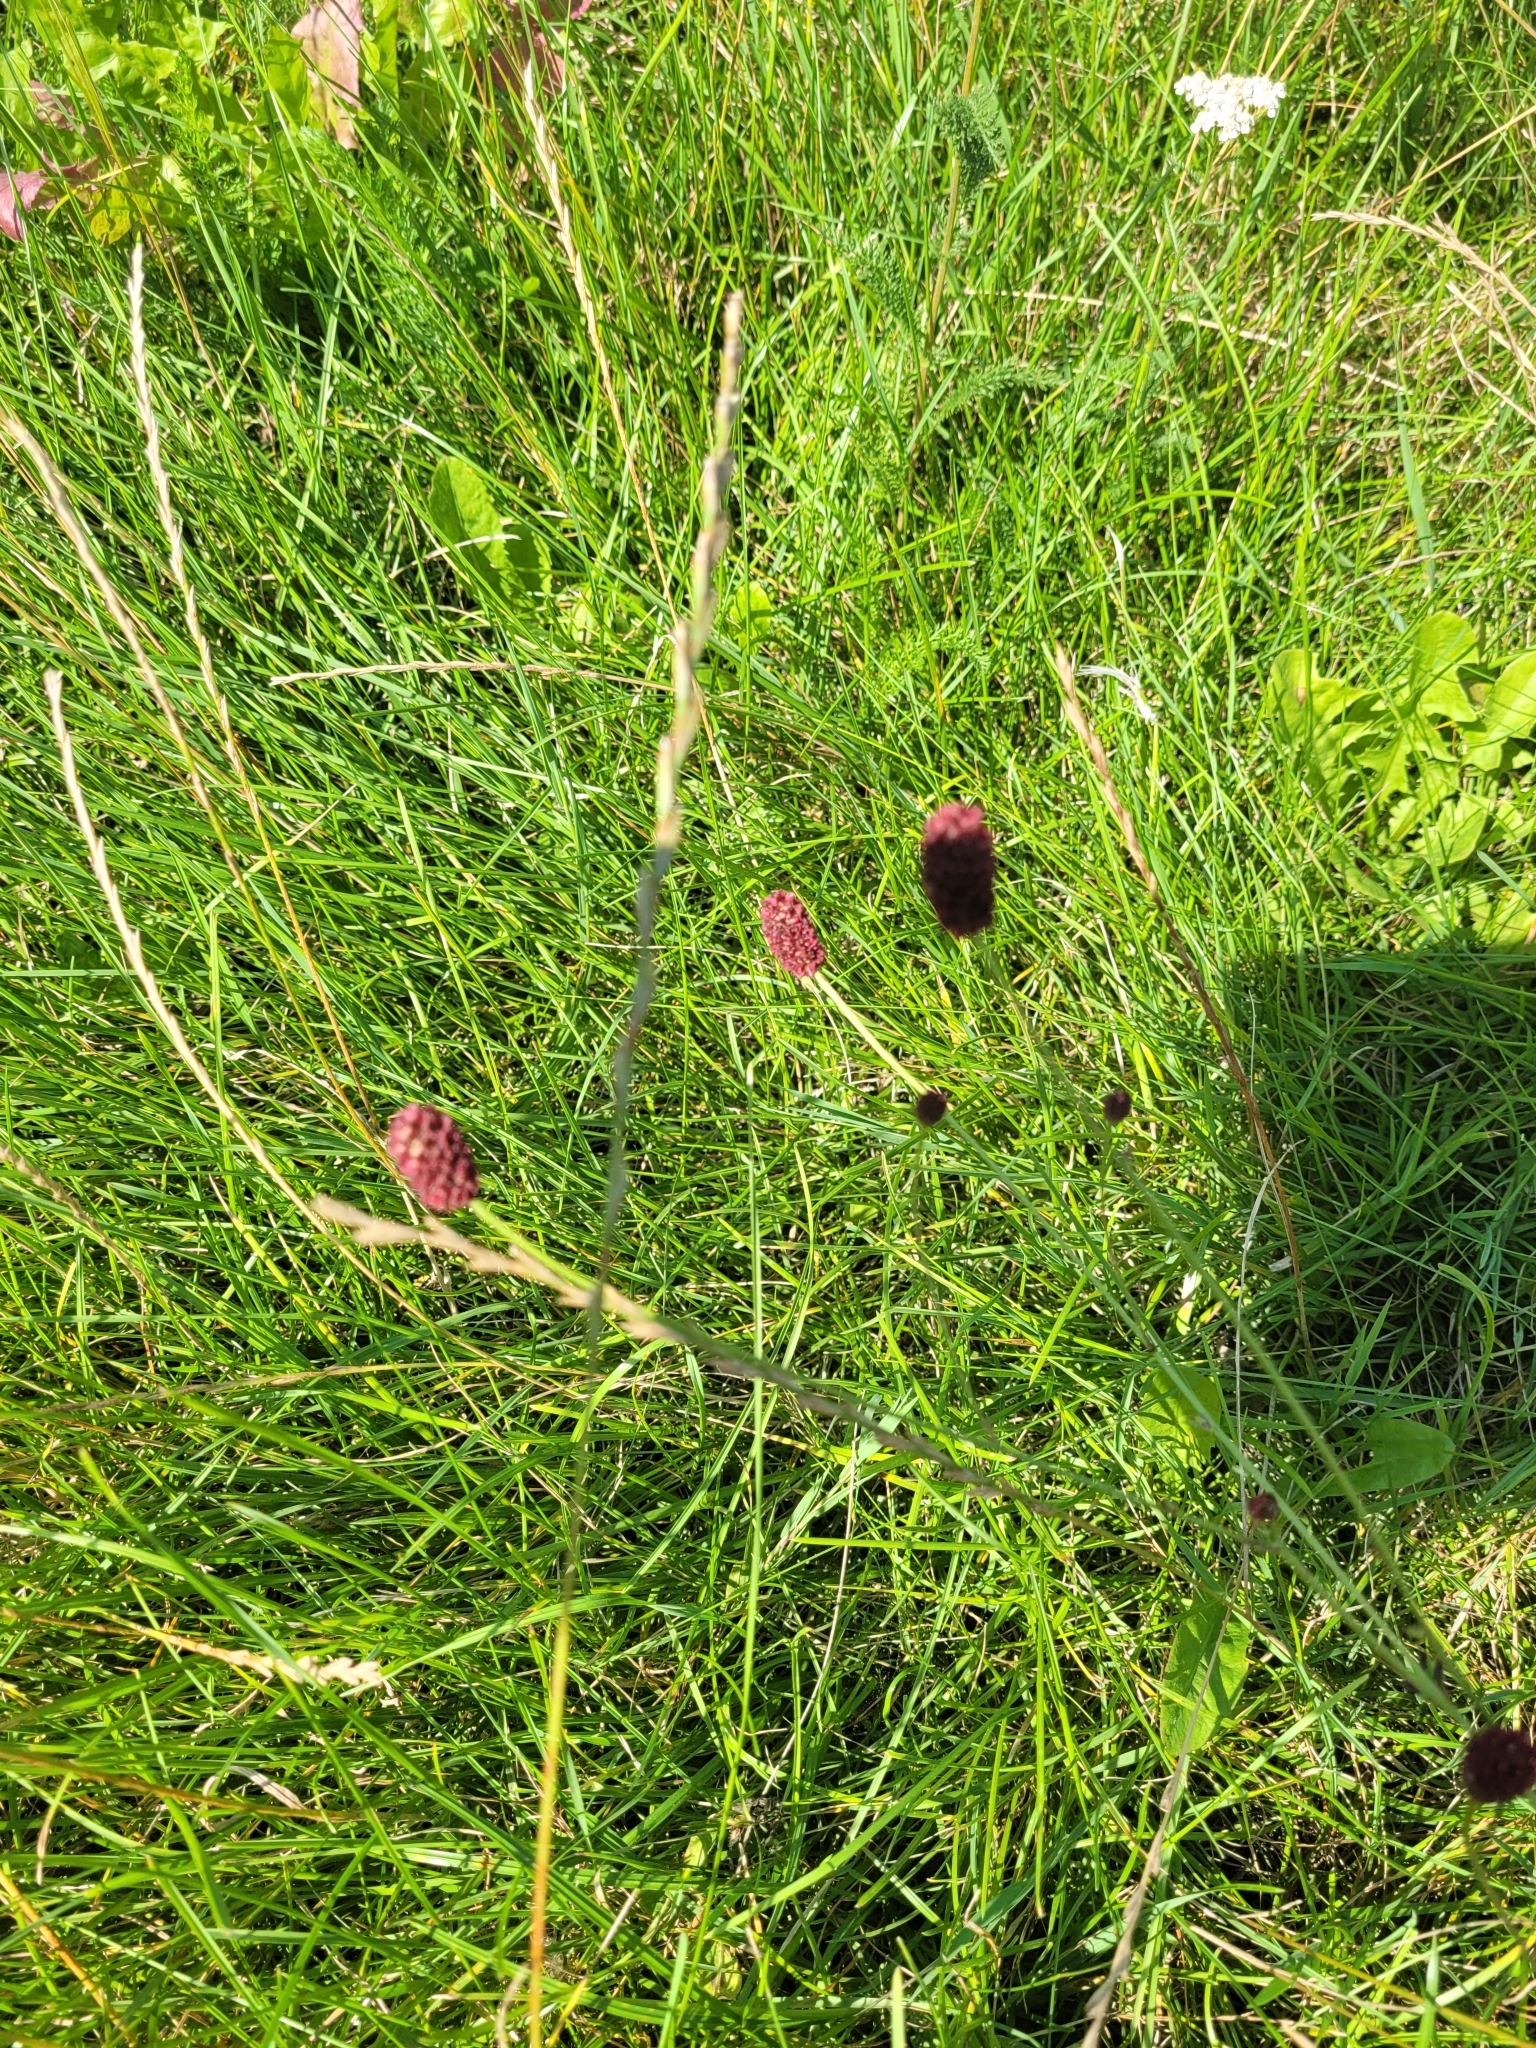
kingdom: Plantae
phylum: Tracheophyta
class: Magnoliopsida
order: Rosales
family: Rosaceae
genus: Sanguisorba
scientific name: Sanguisorba officinalis
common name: Great burnet
